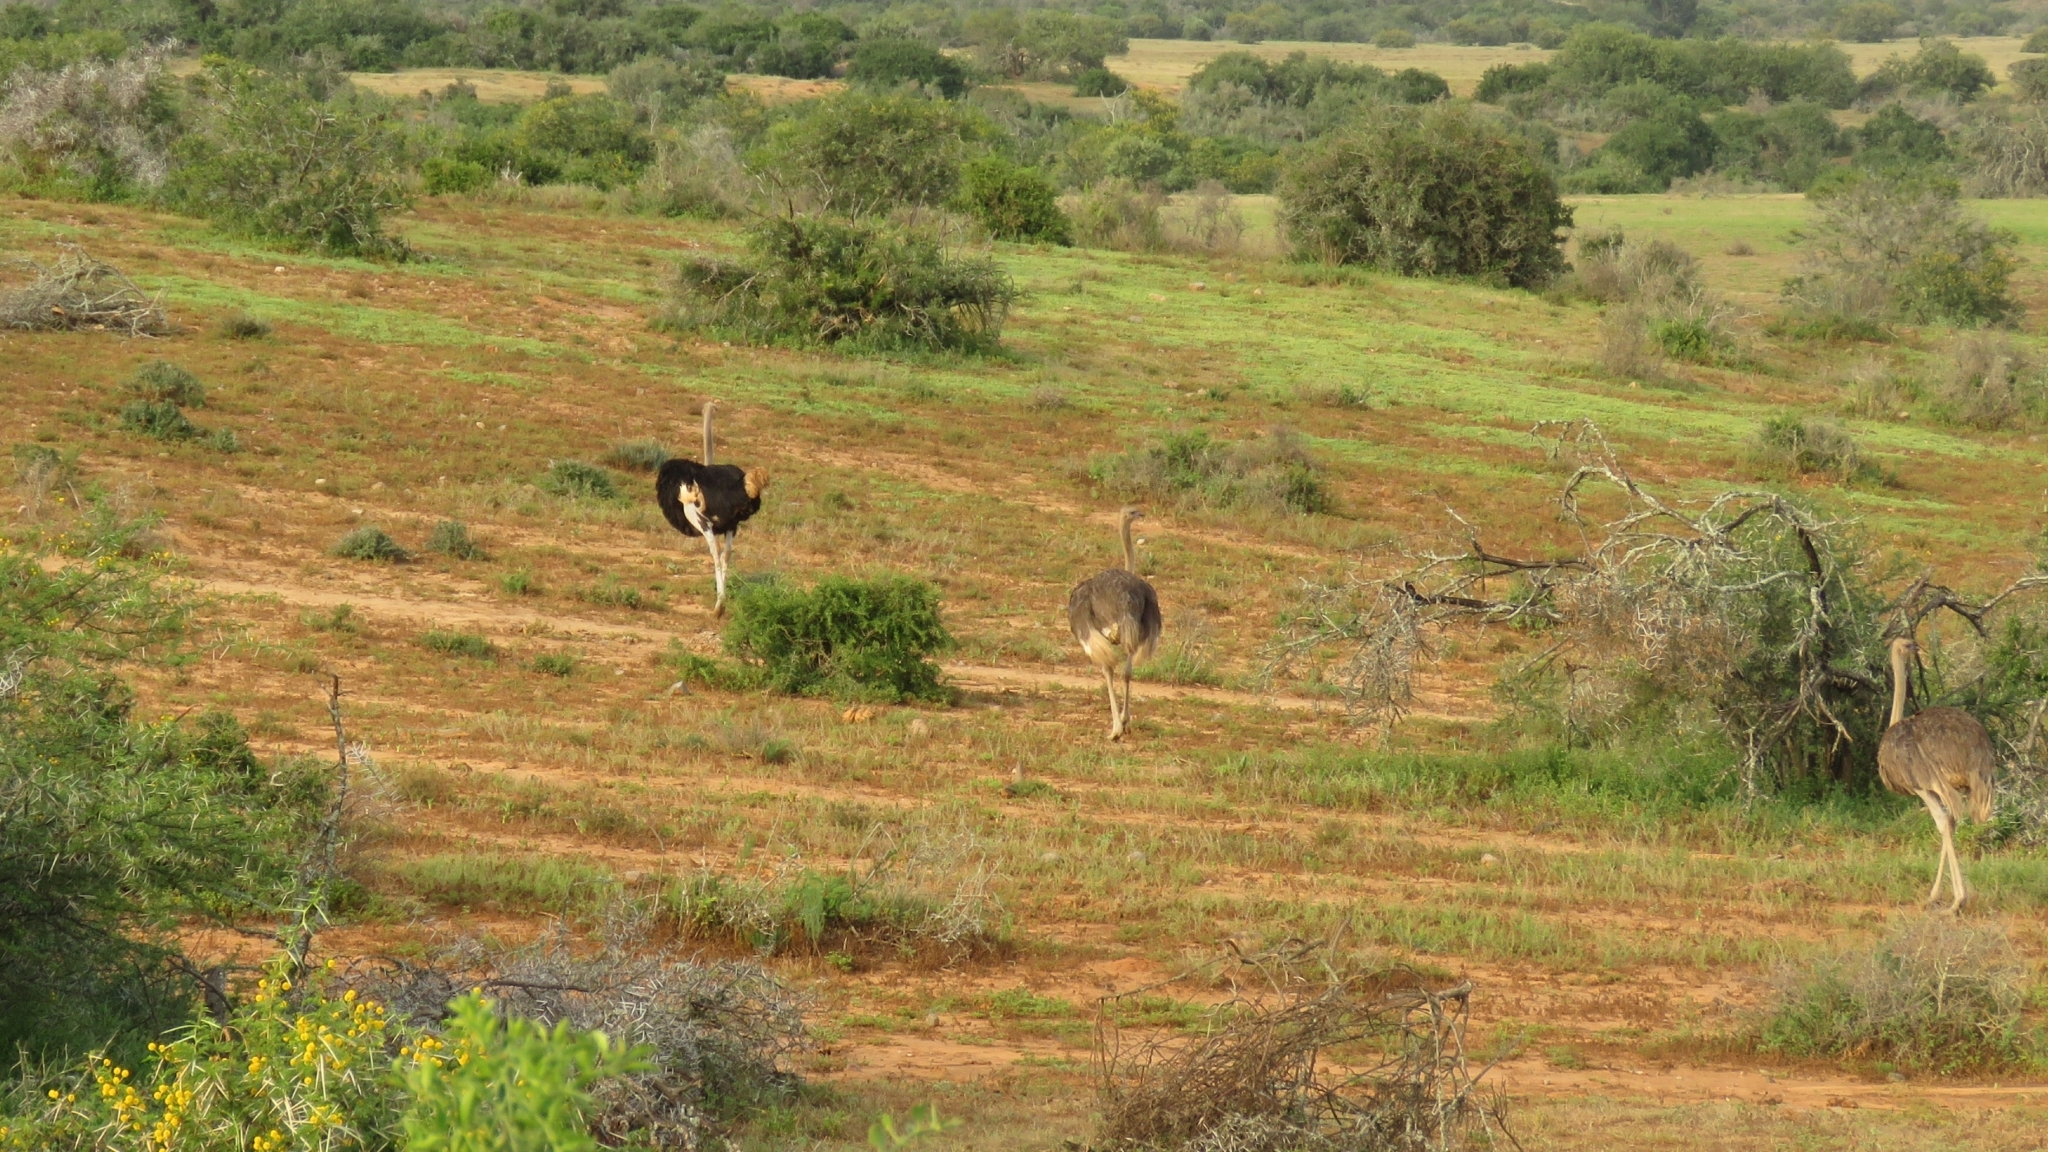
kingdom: Animalia
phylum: Chordata
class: Aves
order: Struthioniformes
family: Struthionidae
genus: Struthio
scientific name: Struthio camelus
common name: Common ostrich
